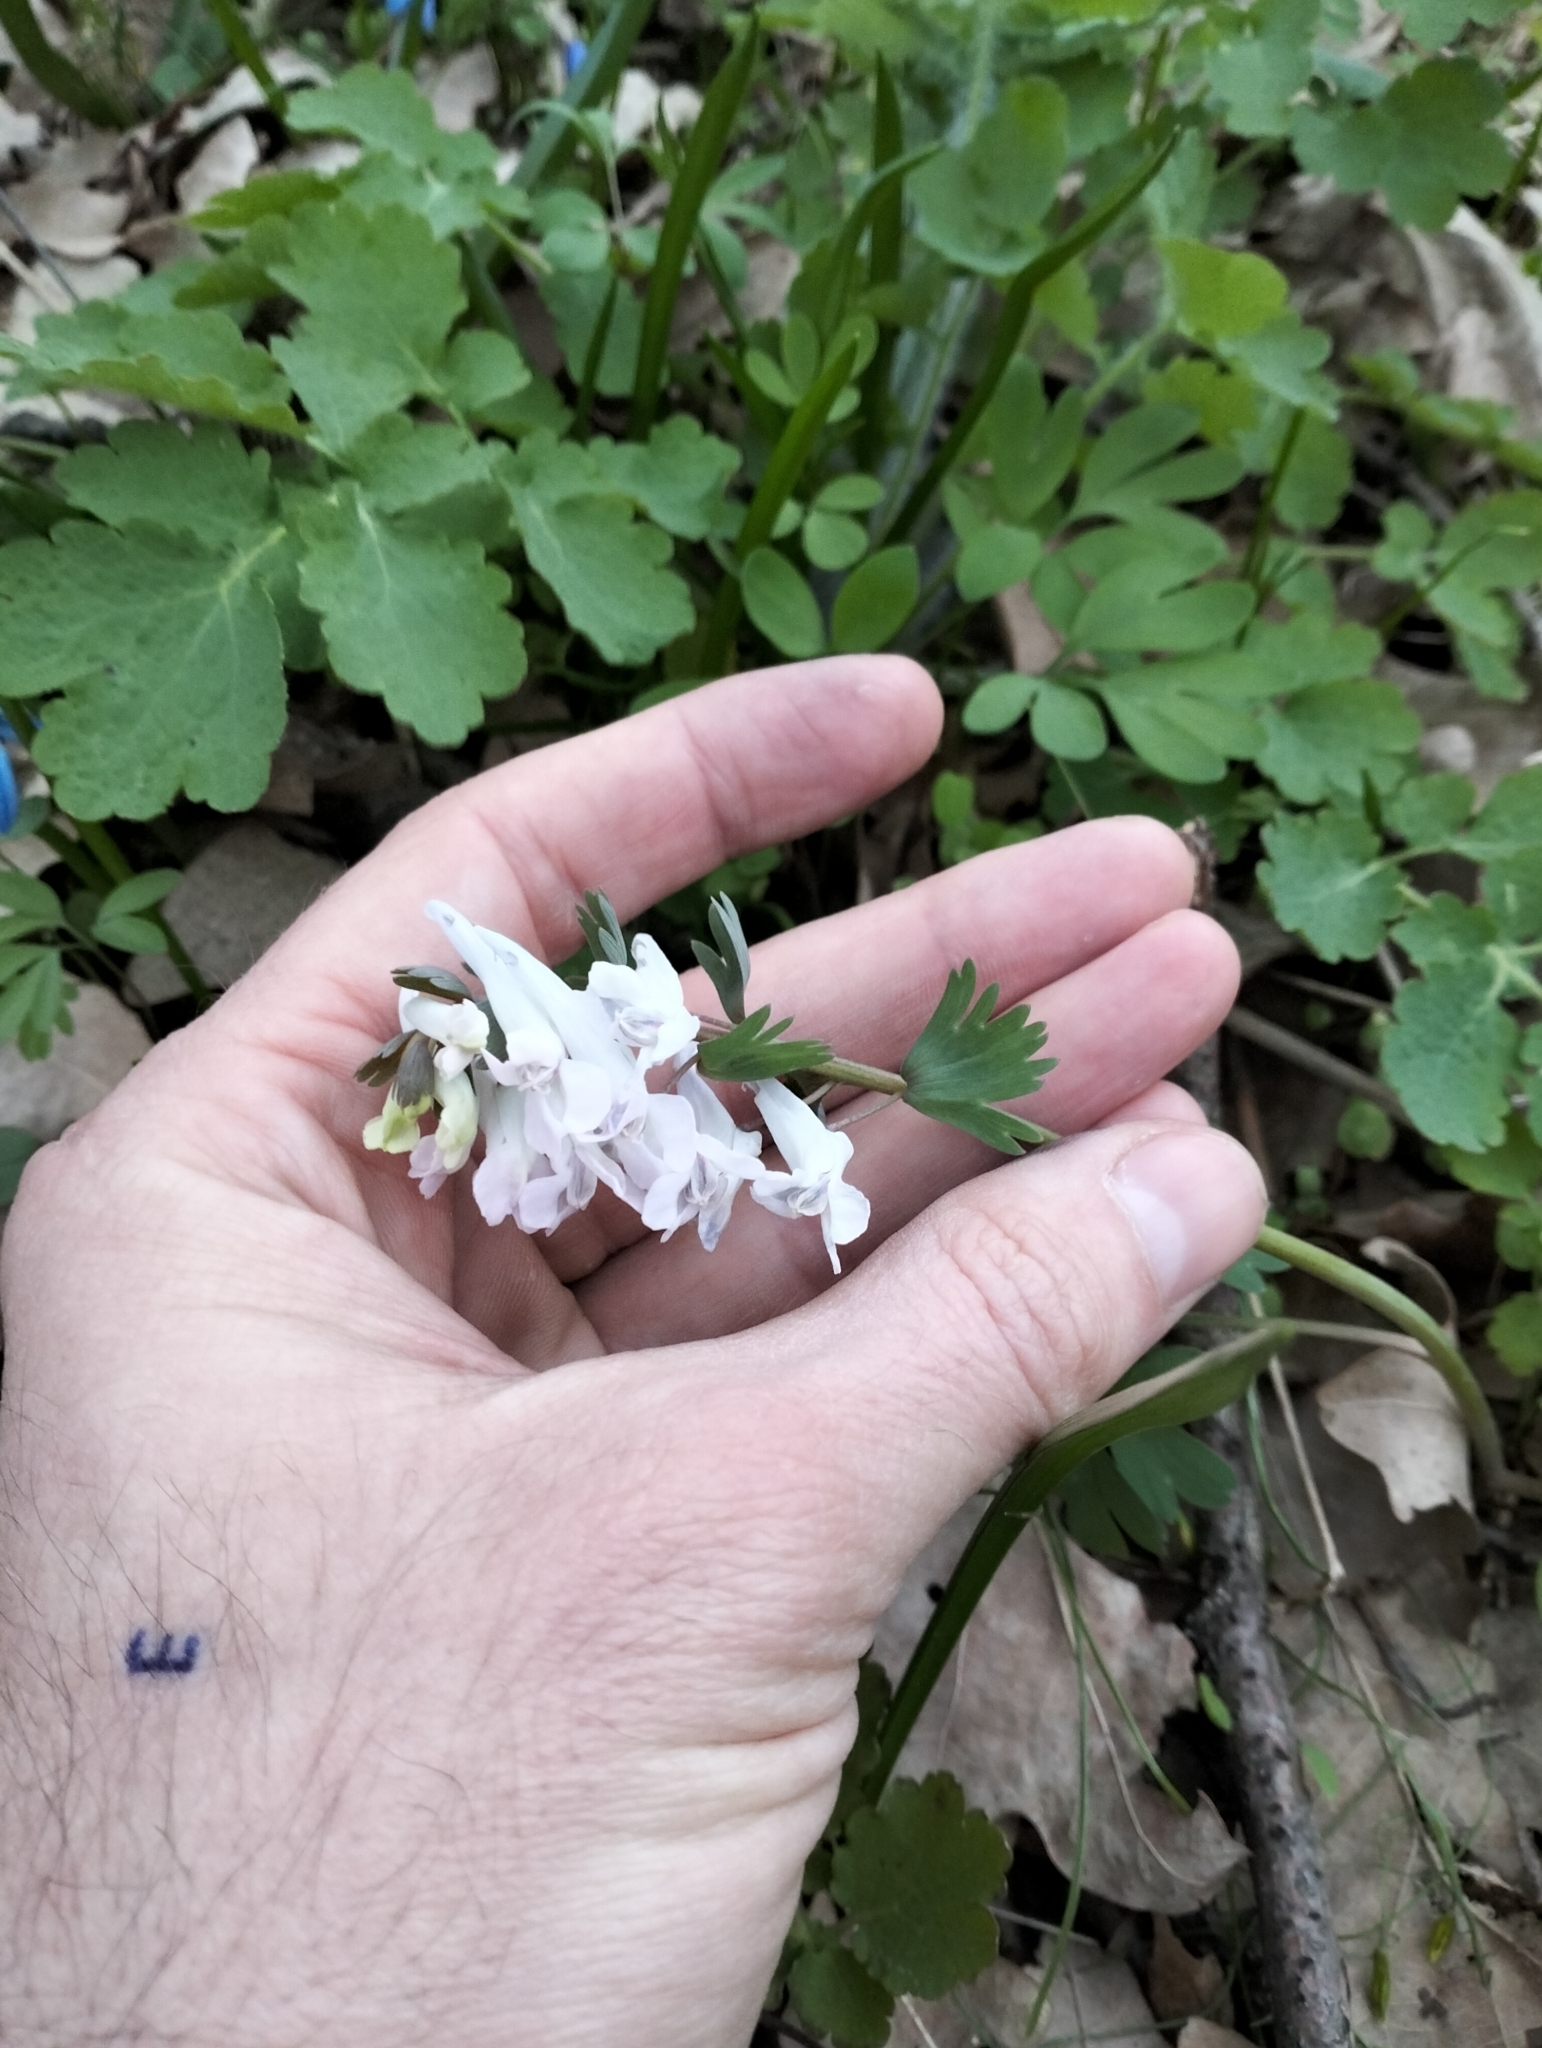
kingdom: Plantae
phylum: Tracheophyta
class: Magnoliopsida
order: Ranunculales
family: Papaveraceae
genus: Corydalis
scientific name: Corydalis solida
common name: Bird-in-a-bush
